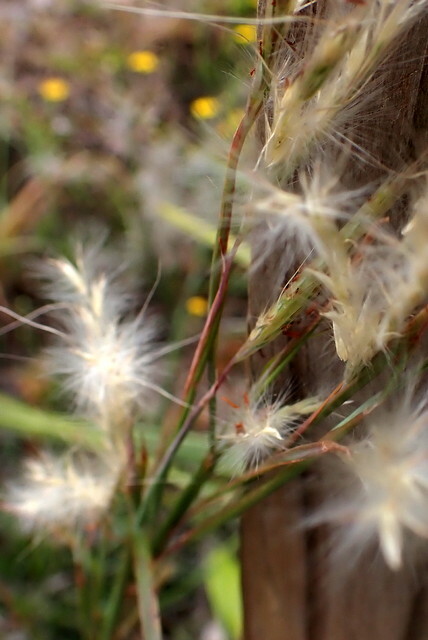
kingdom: Plantae
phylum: Tracheophyta
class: Liliopsida
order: Poales
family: Poaceae
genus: Andropogon
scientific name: Andropogon ternarius
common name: Split bluestem
